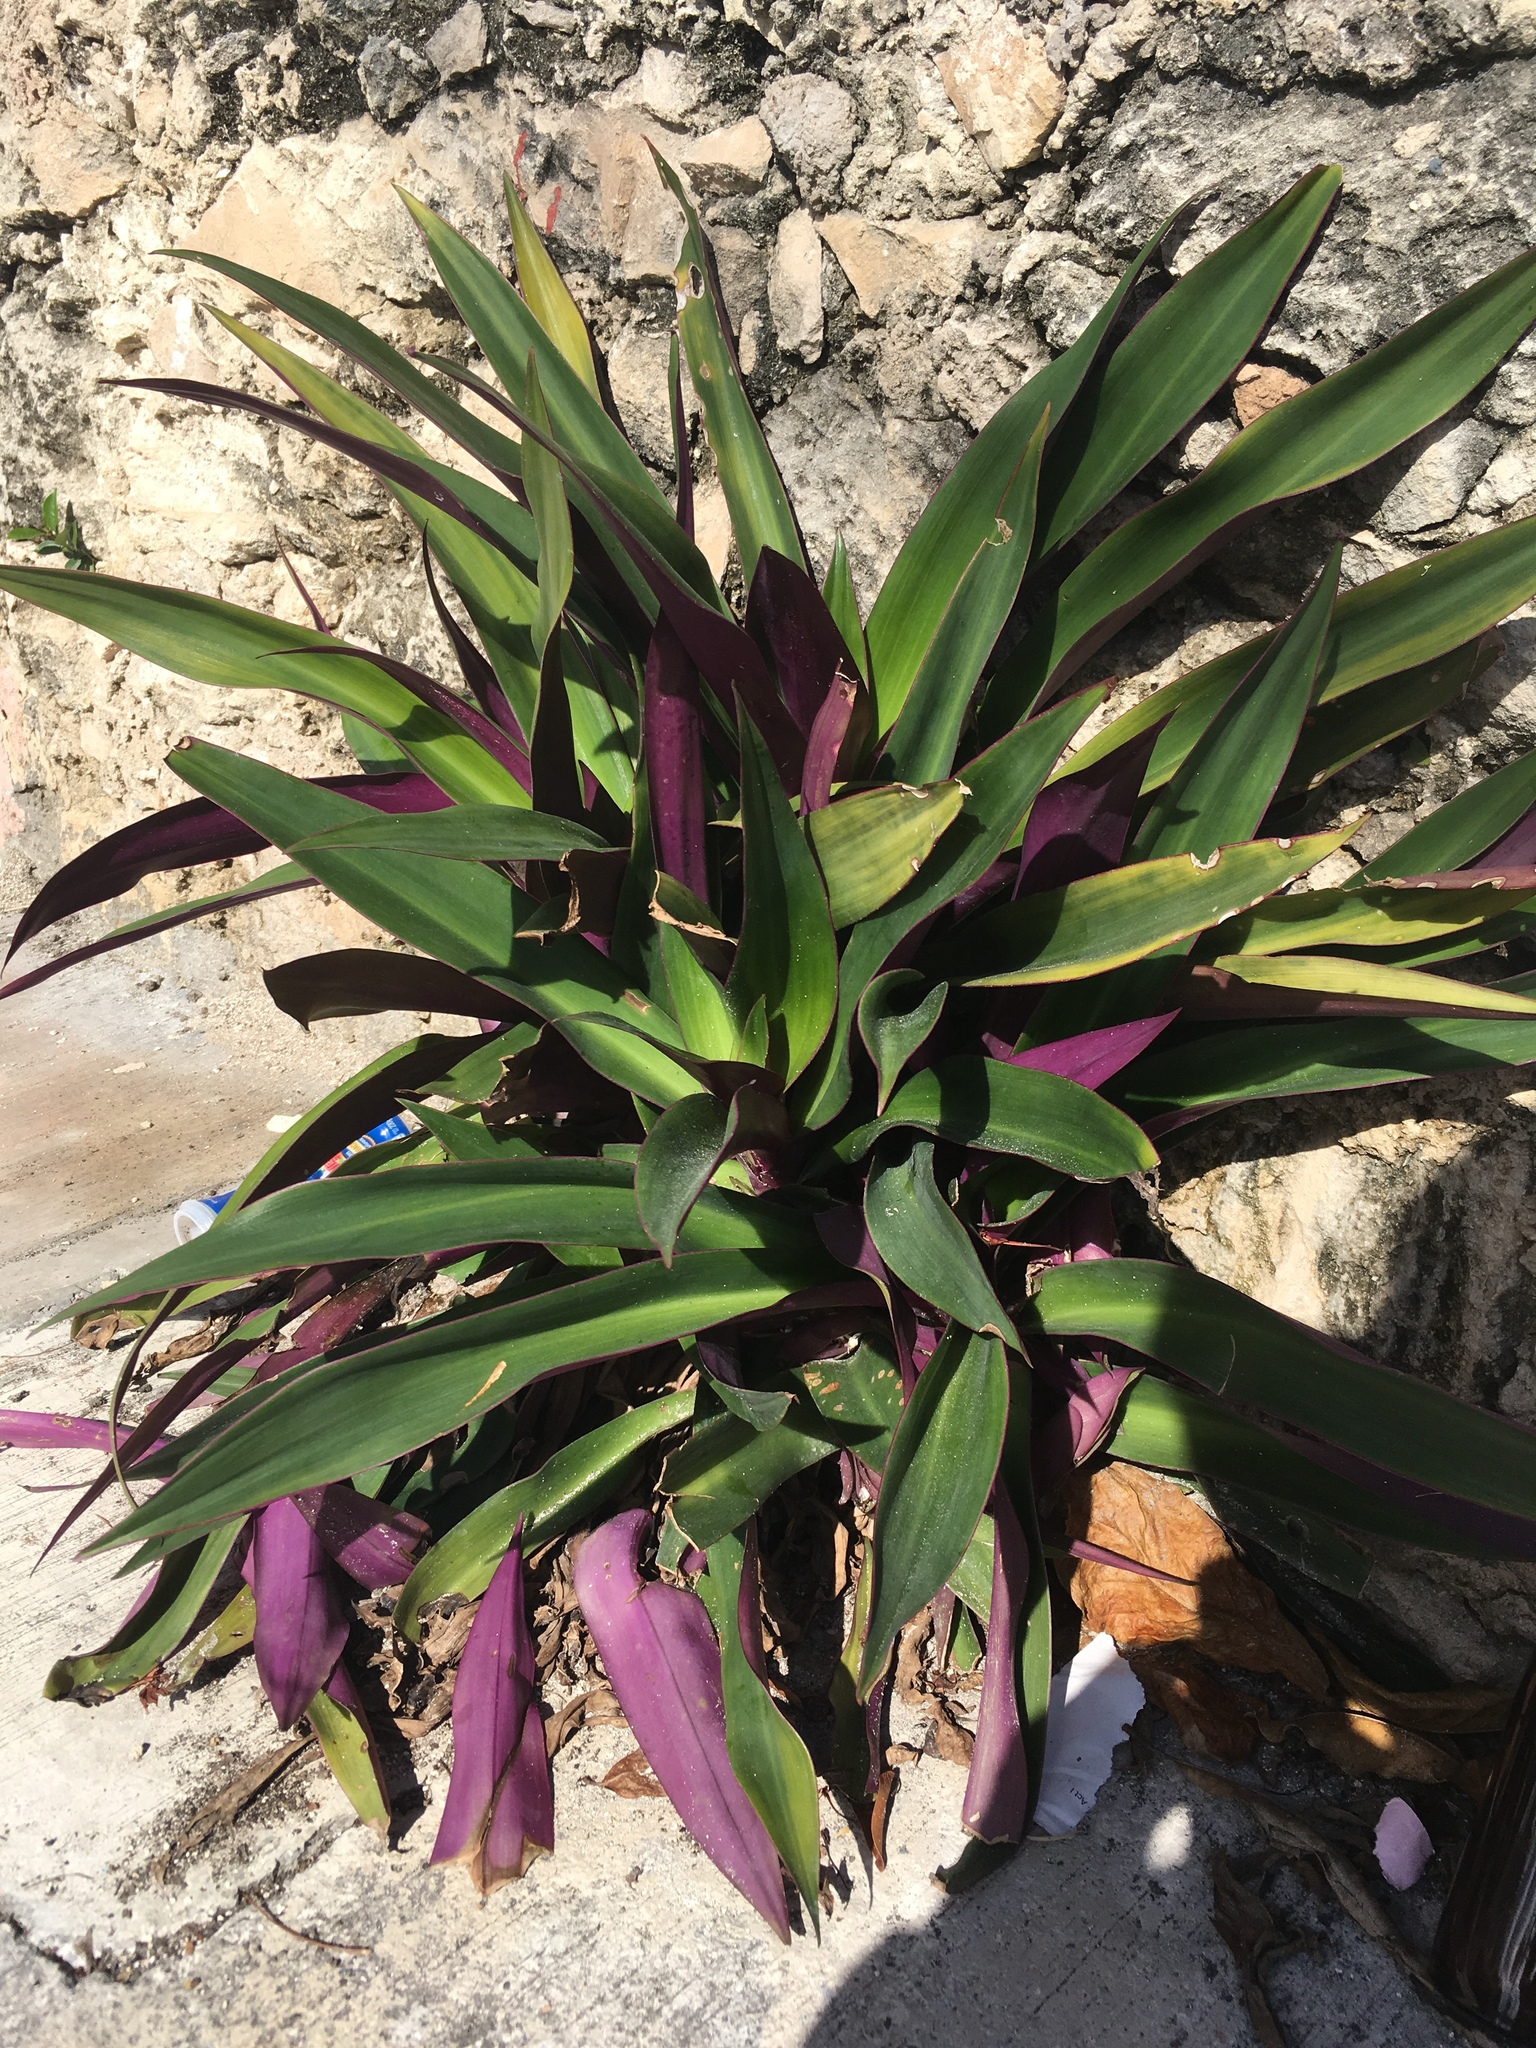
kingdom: Plantae
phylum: Tracheophyta
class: Liliopsida
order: Commelinales
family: Commelinaceae
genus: Tradescantia
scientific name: Tradescantia spathacea
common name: Boatlily
